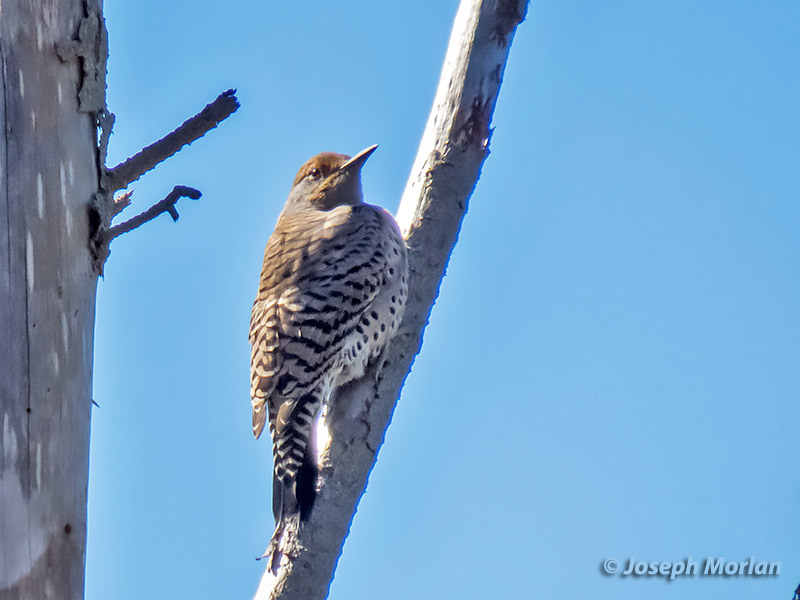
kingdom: Animalia
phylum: Chordata
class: Aves
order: Piciformes
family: Picidae
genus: Colaptes
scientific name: Colaptes auratus
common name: Northern flicker
